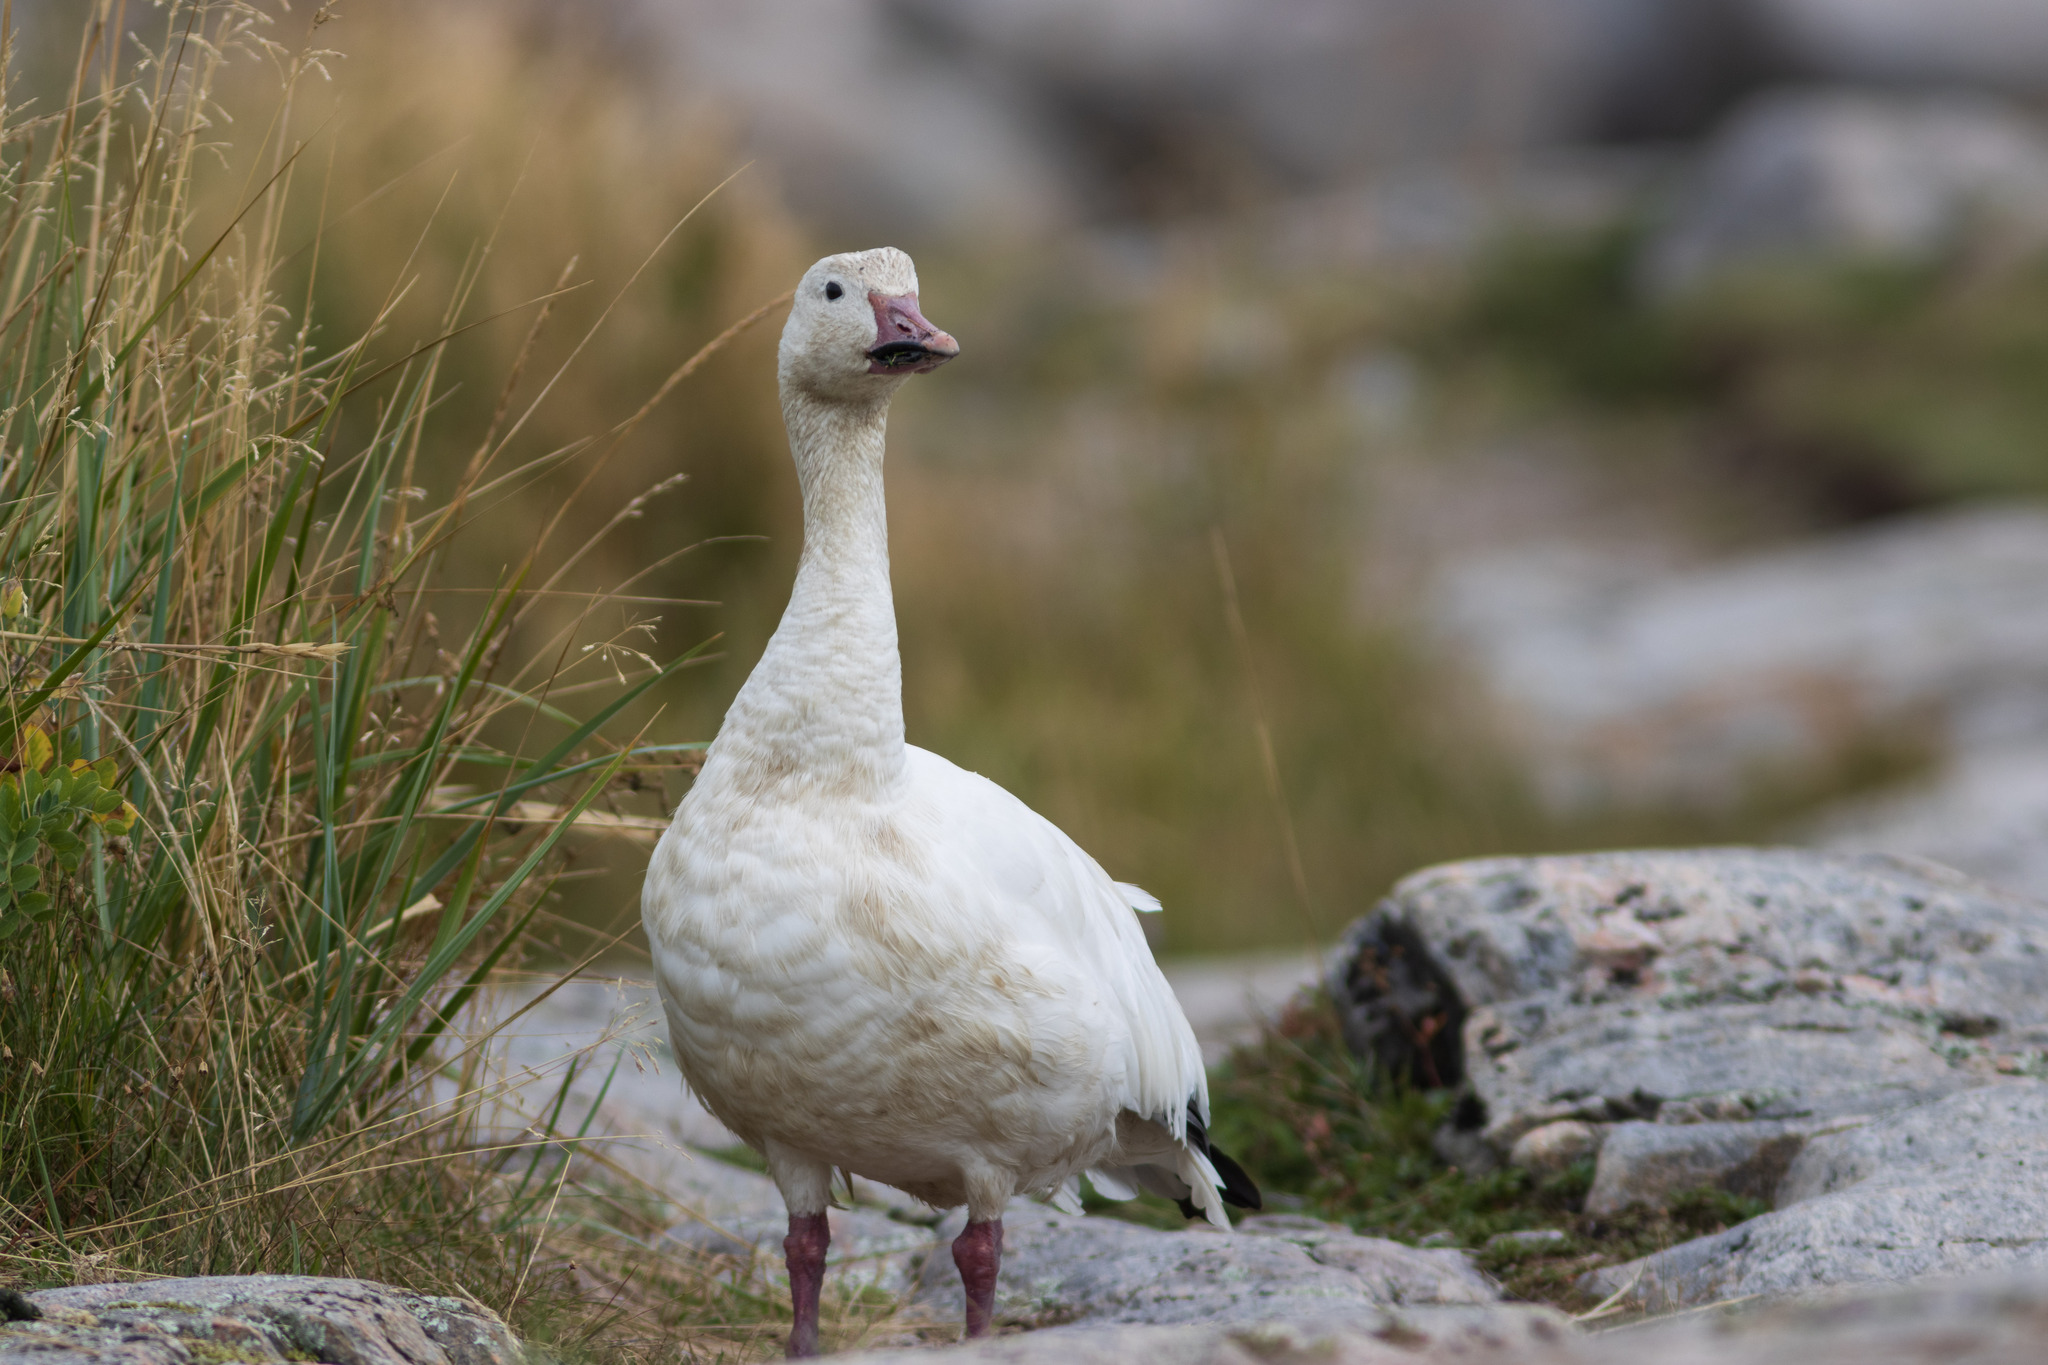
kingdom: Animalia
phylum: Chordata
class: Aves
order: Anseriformes
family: Anatidae
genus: Anser
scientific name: Anser caerulescens
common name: Snow goose
